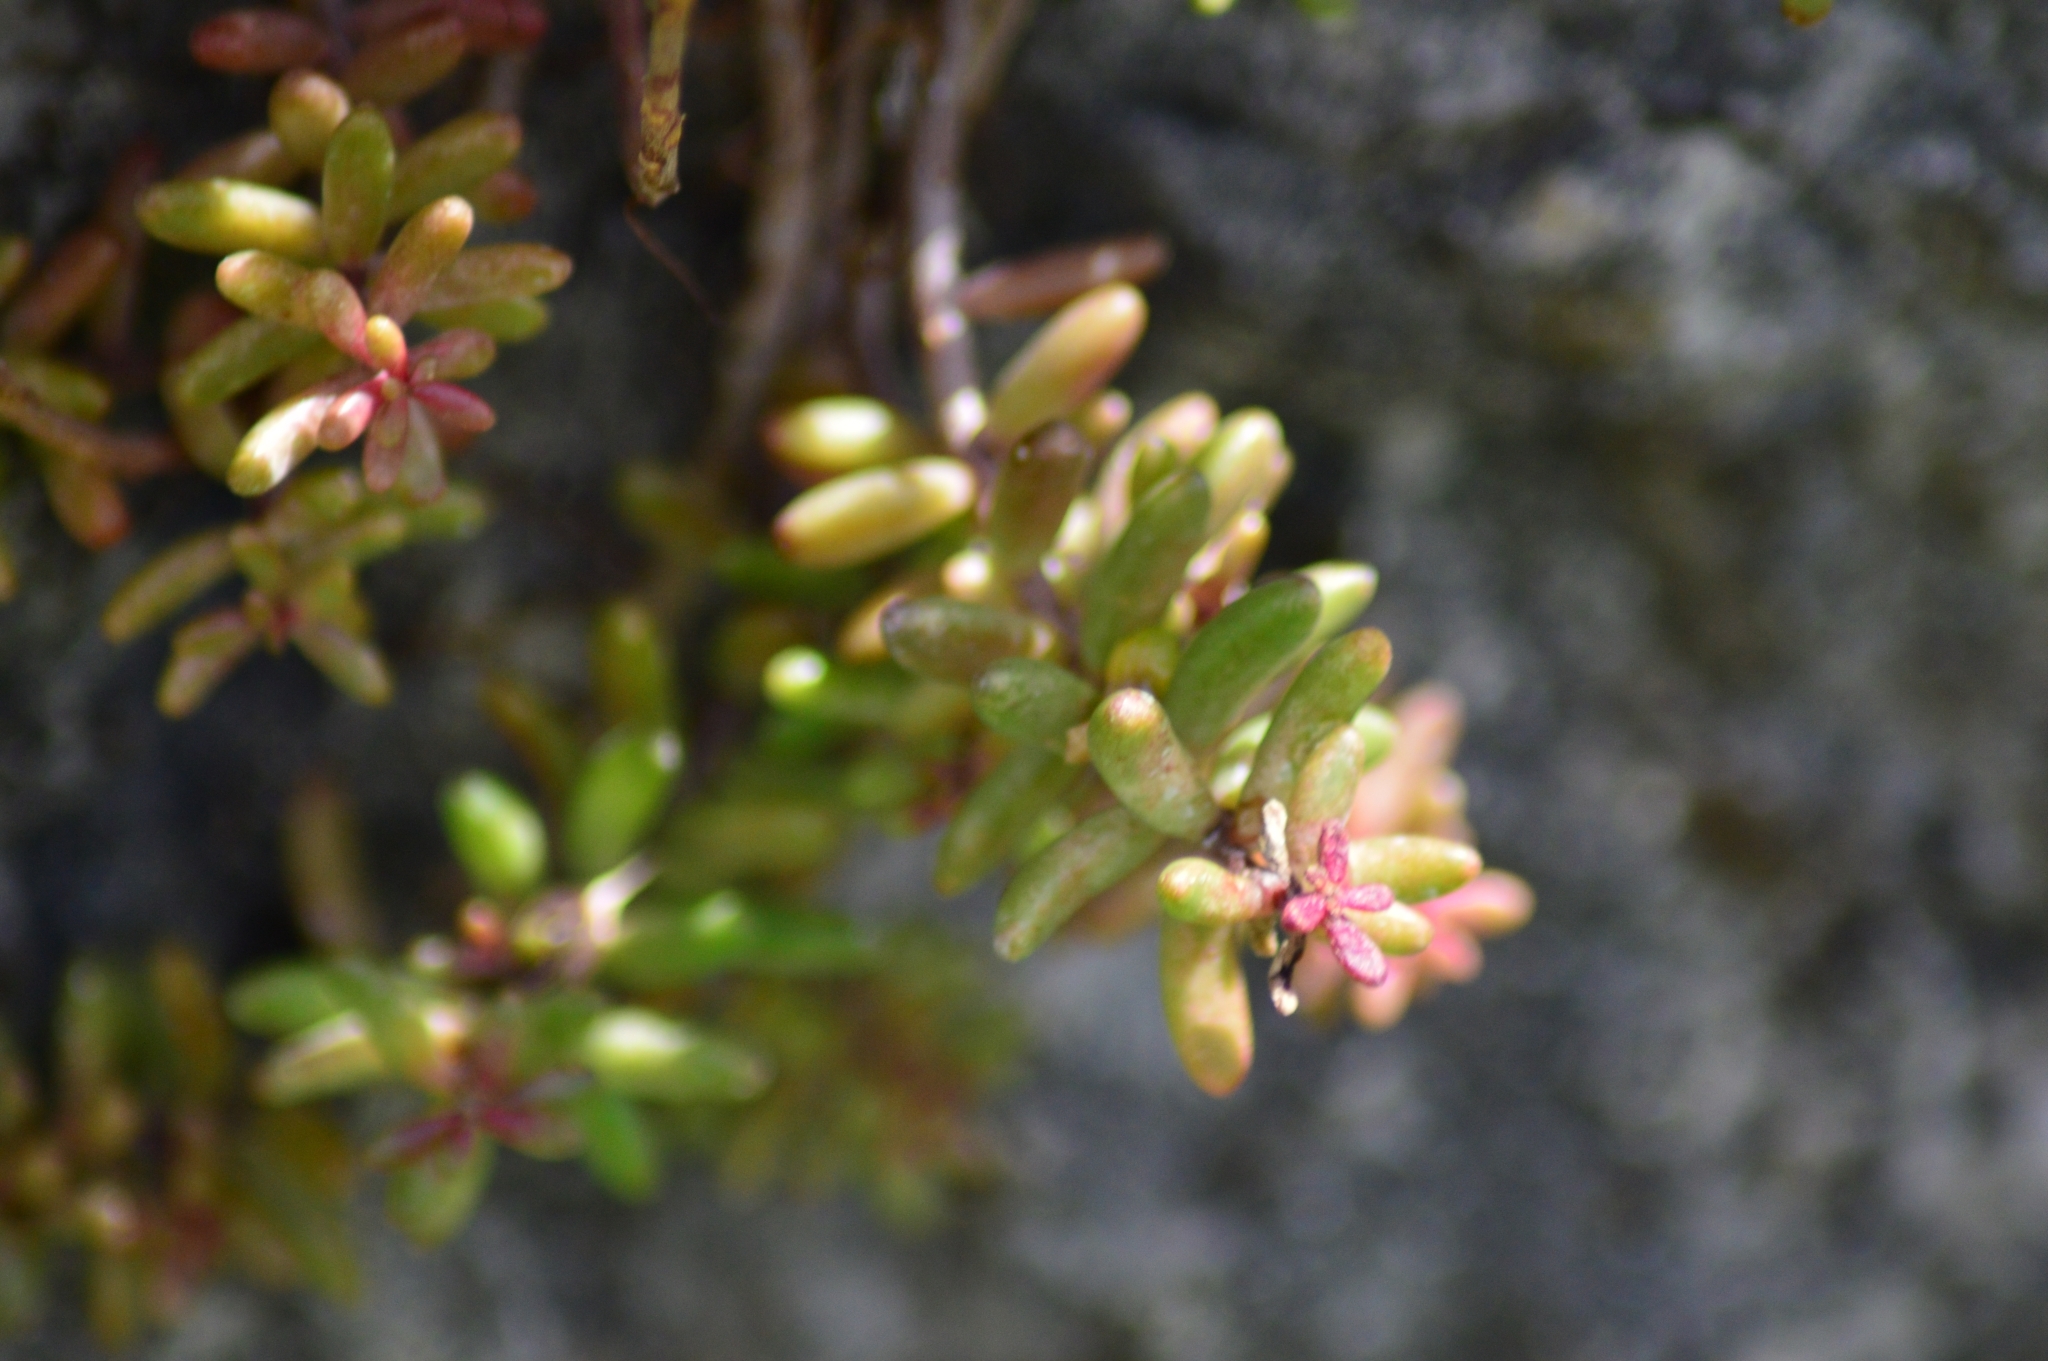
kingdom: Plantae
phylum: Tracheophyta
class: Magnoliopsida
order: Saxifragales
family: Crassulaceae
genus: Sedum
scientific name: Sedum album
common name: White stonecrop
